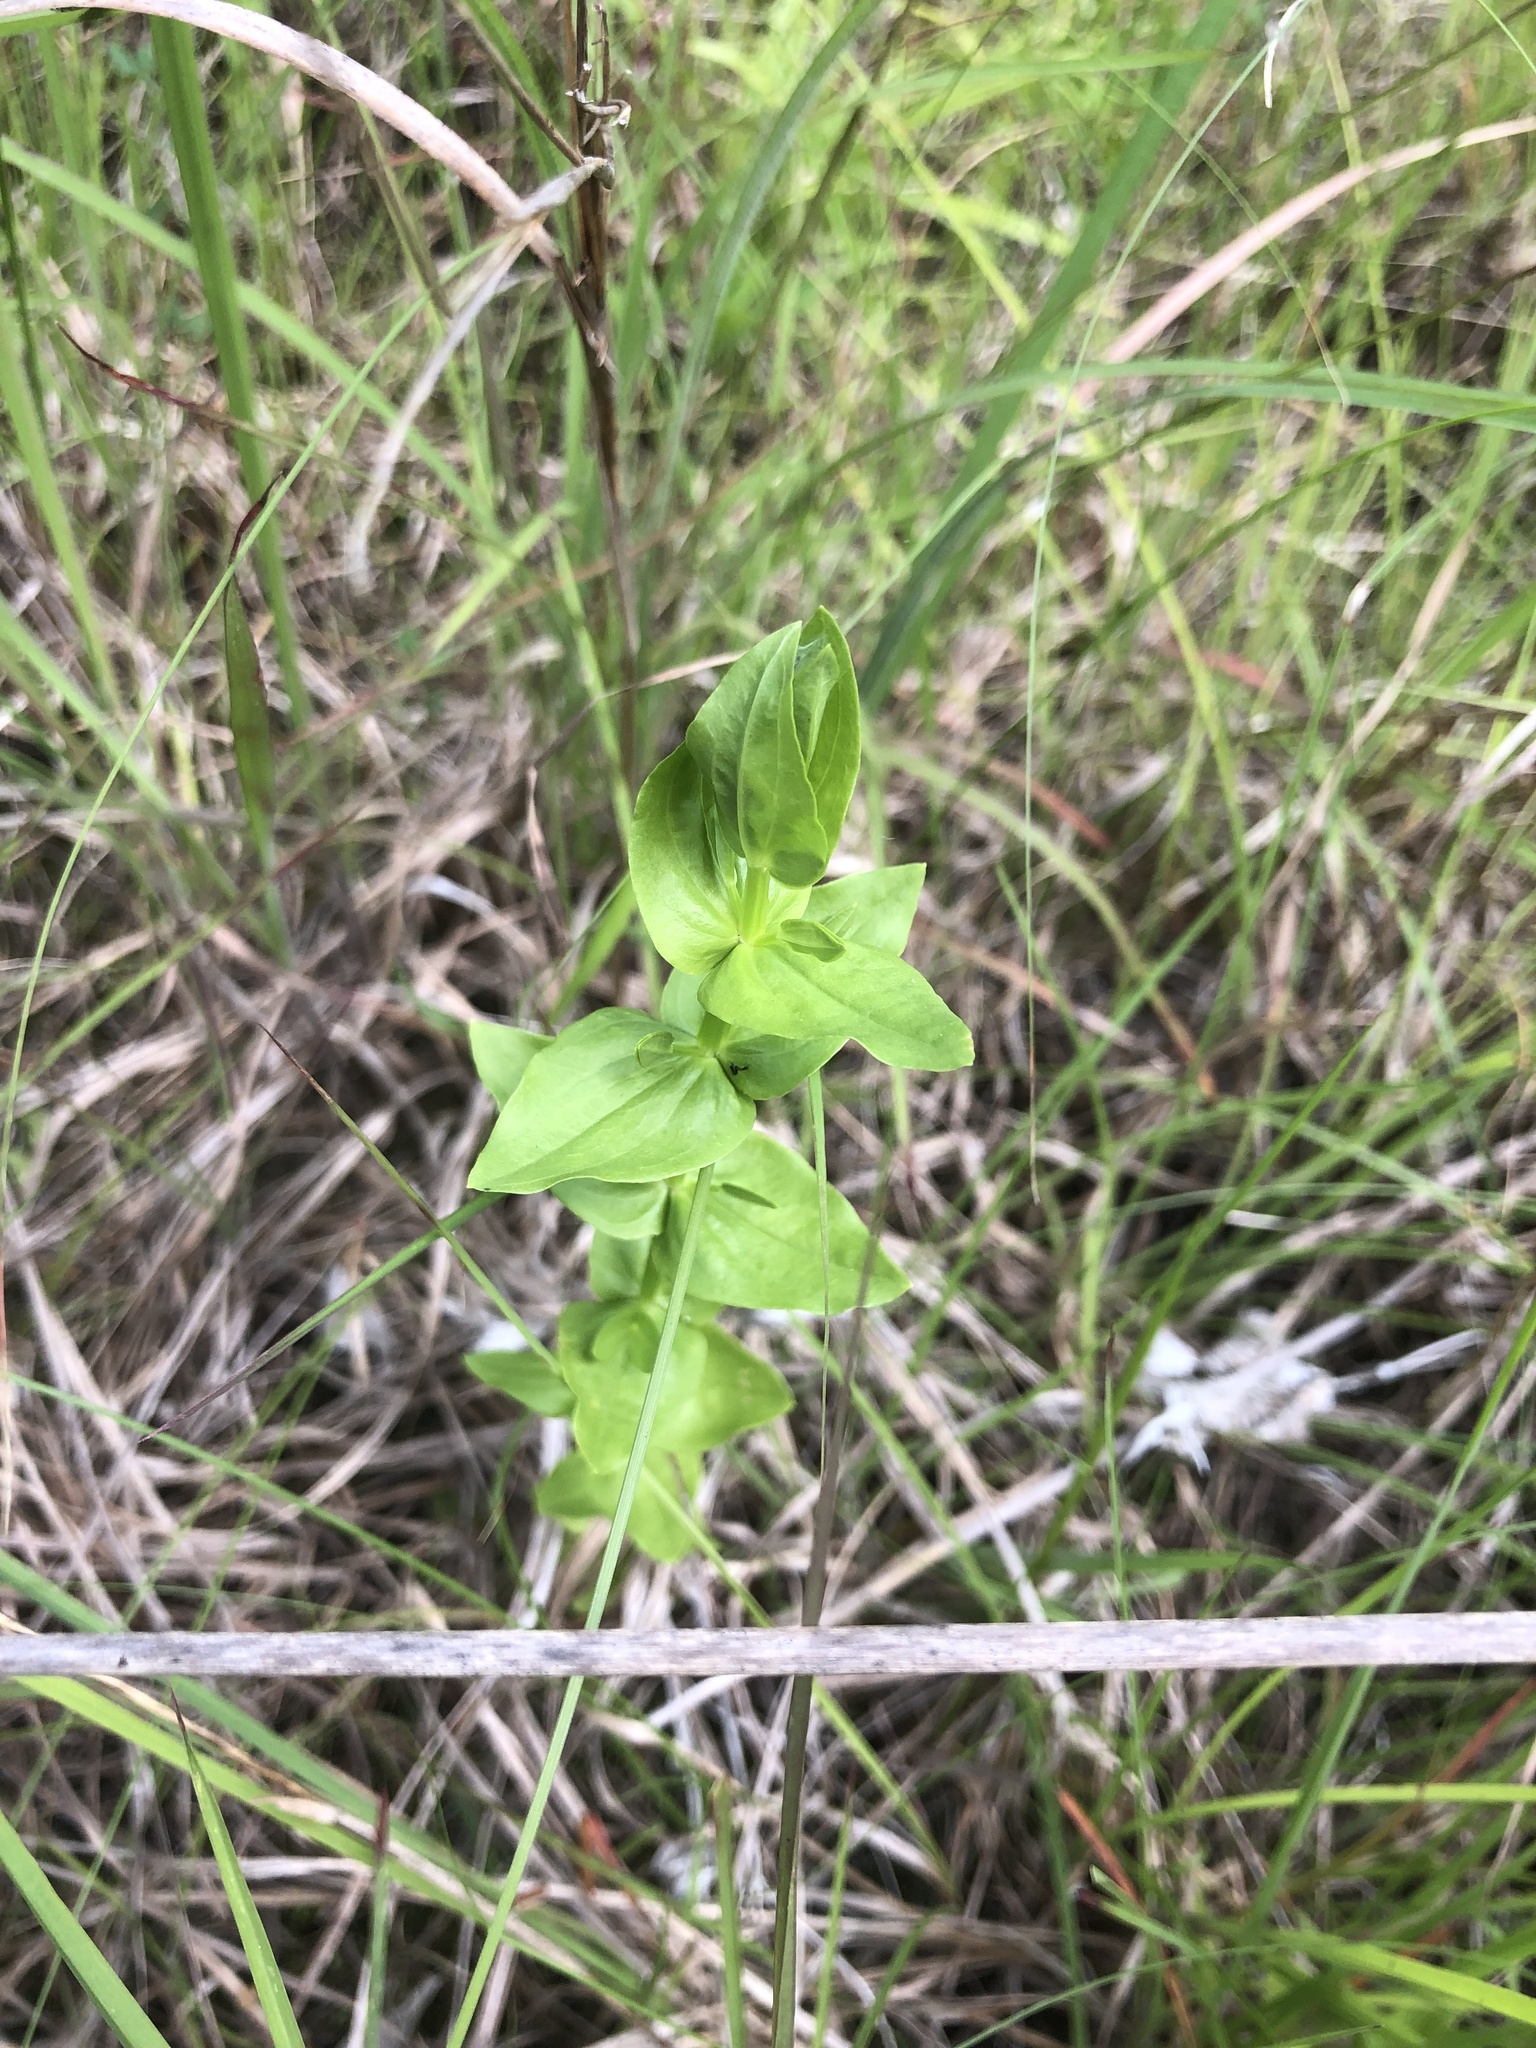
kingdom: Plantae
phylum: Tracheophyta
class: Magnoliopsida
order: Gentianales
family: Gentianaceae
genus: Sabatia
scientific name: Sabatia angularis
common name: Rose-pink
